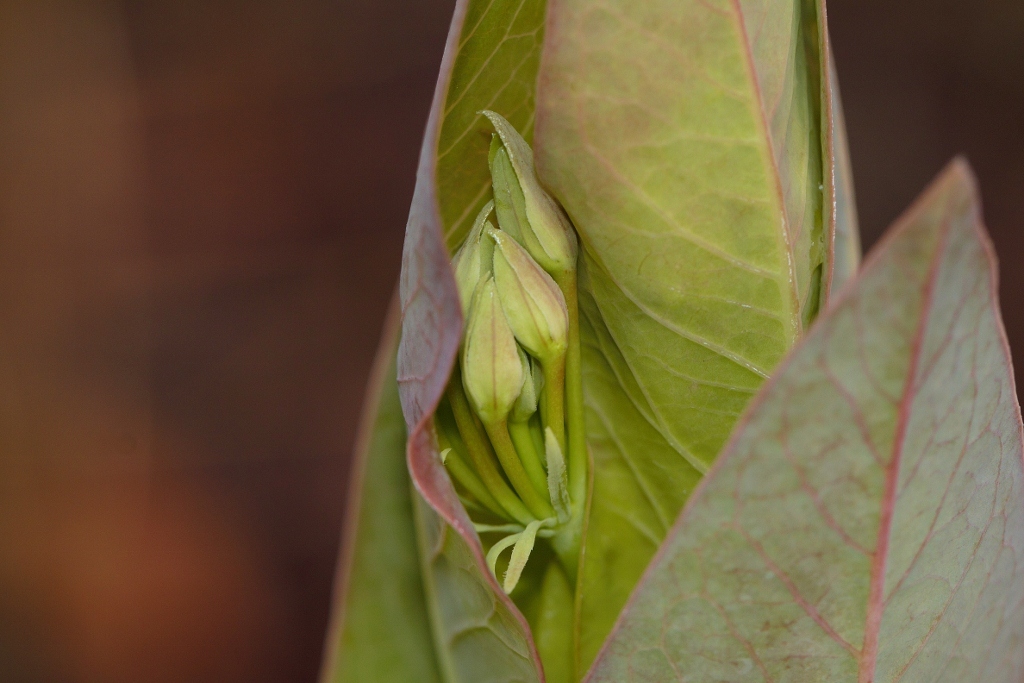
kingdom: Plantae
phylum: Tracheophyta
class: Magnoliopsida
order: Gentianales
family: Apocynaceae
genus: Gomphocarpus
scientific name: Gomphocarpus glaucophyllus
